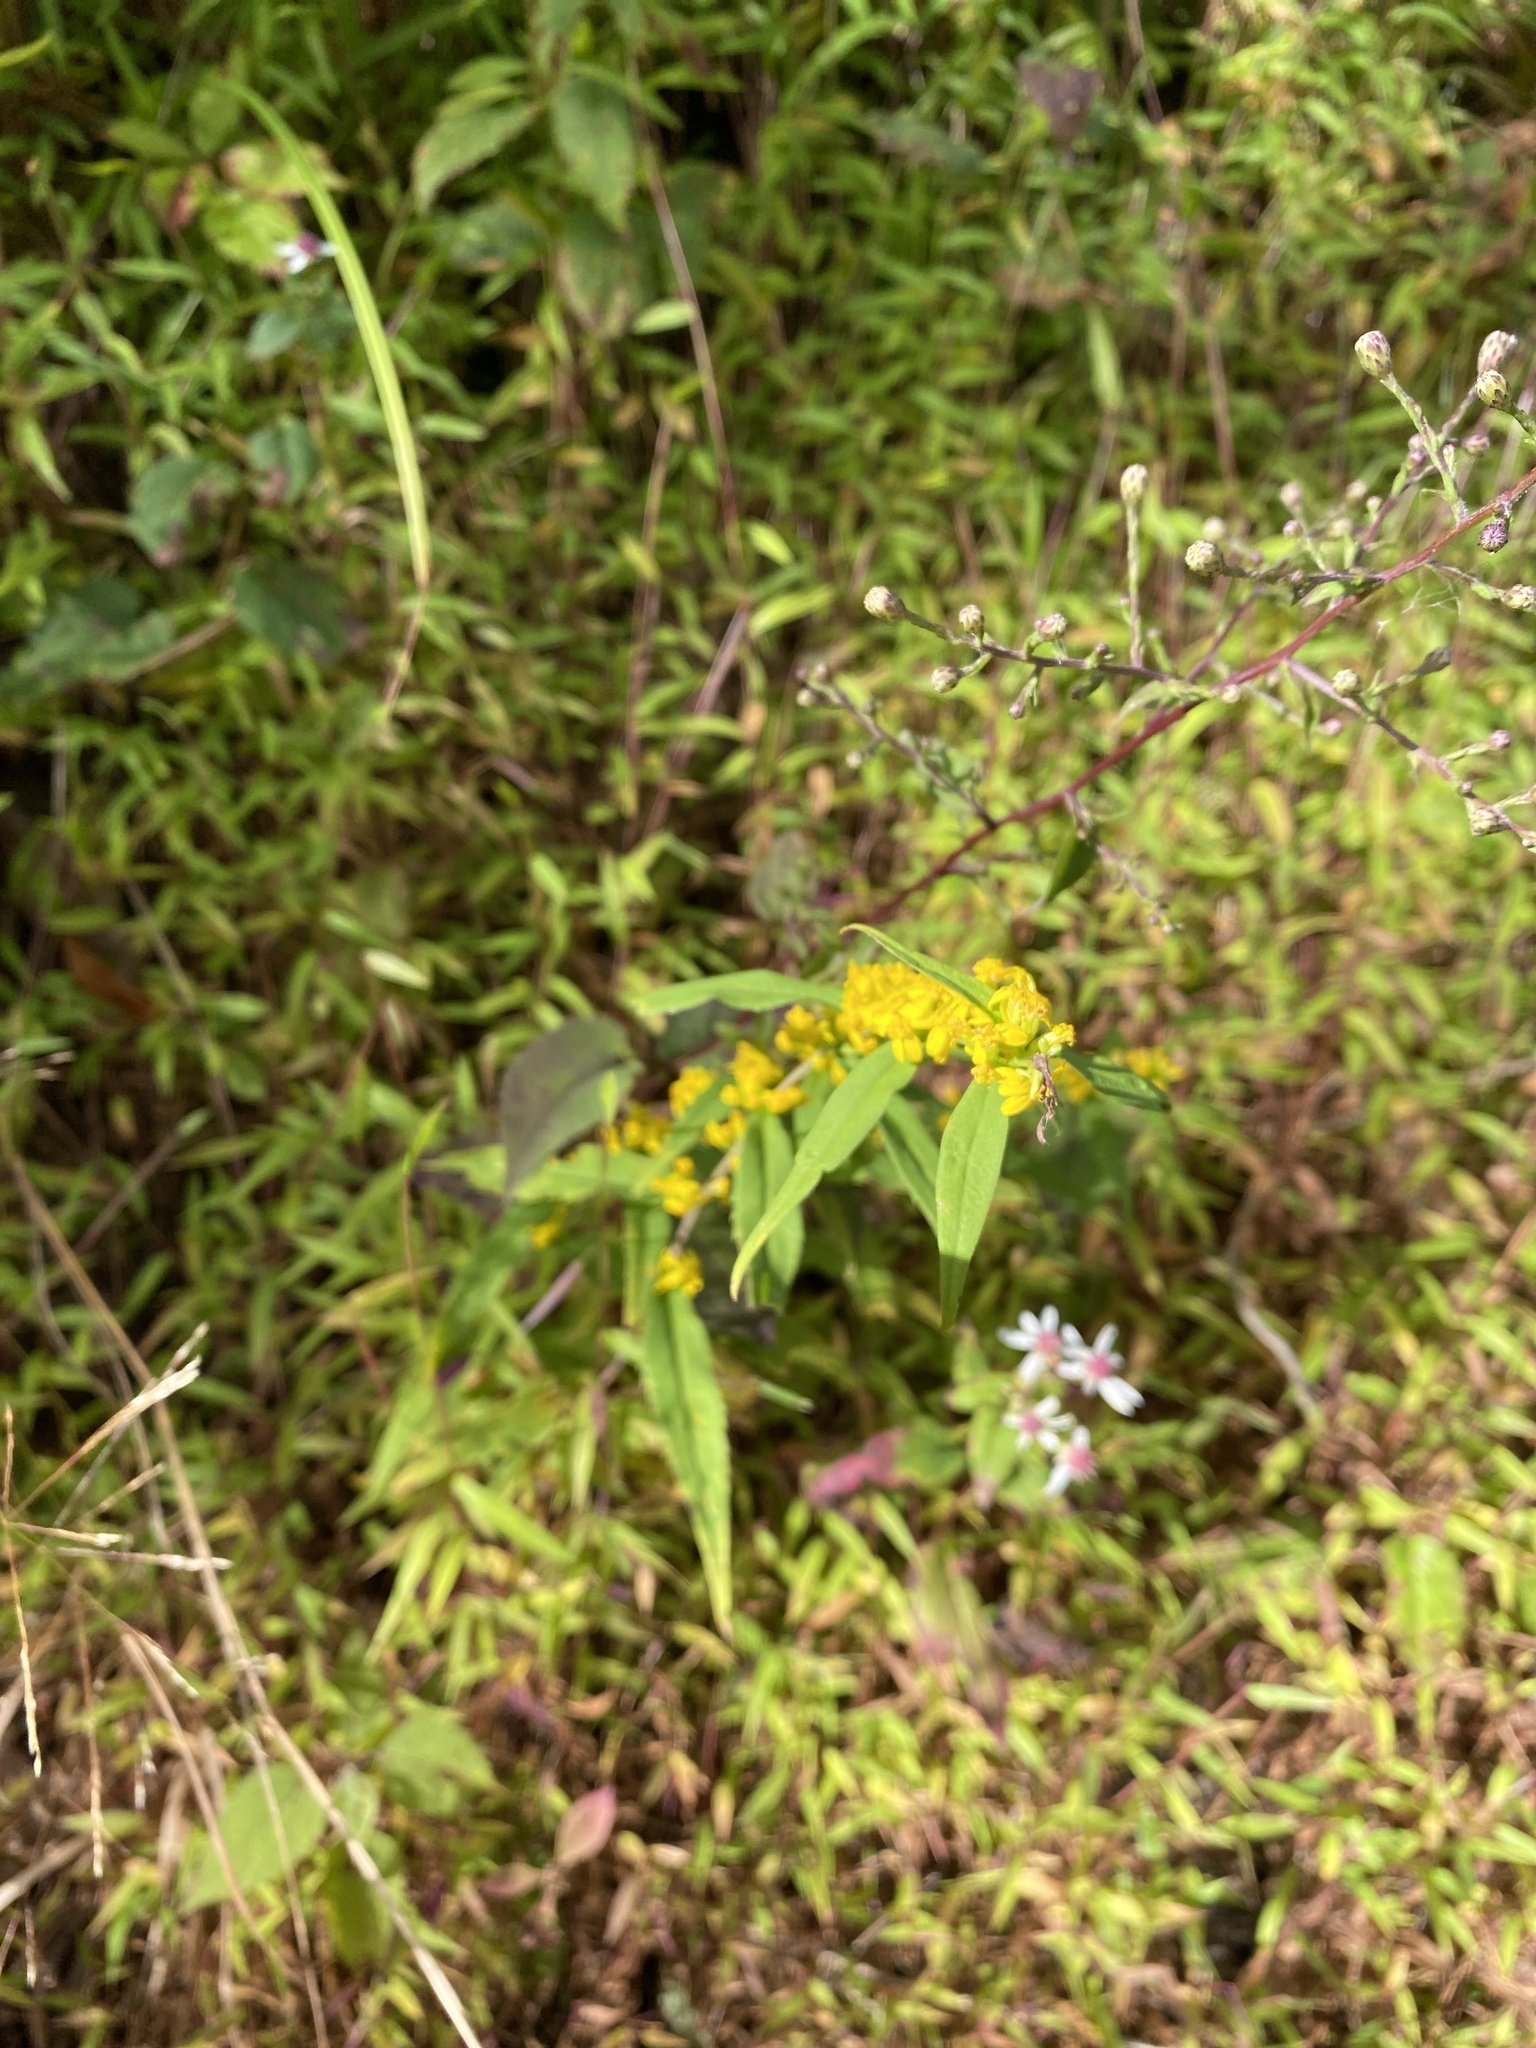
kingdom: Plantae
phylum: Tracheophyta
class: Magnoliopsida
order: Asterales
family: Asteraceae
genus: Solidago
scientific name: Solidago caesia
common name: Woodland goldenrod
